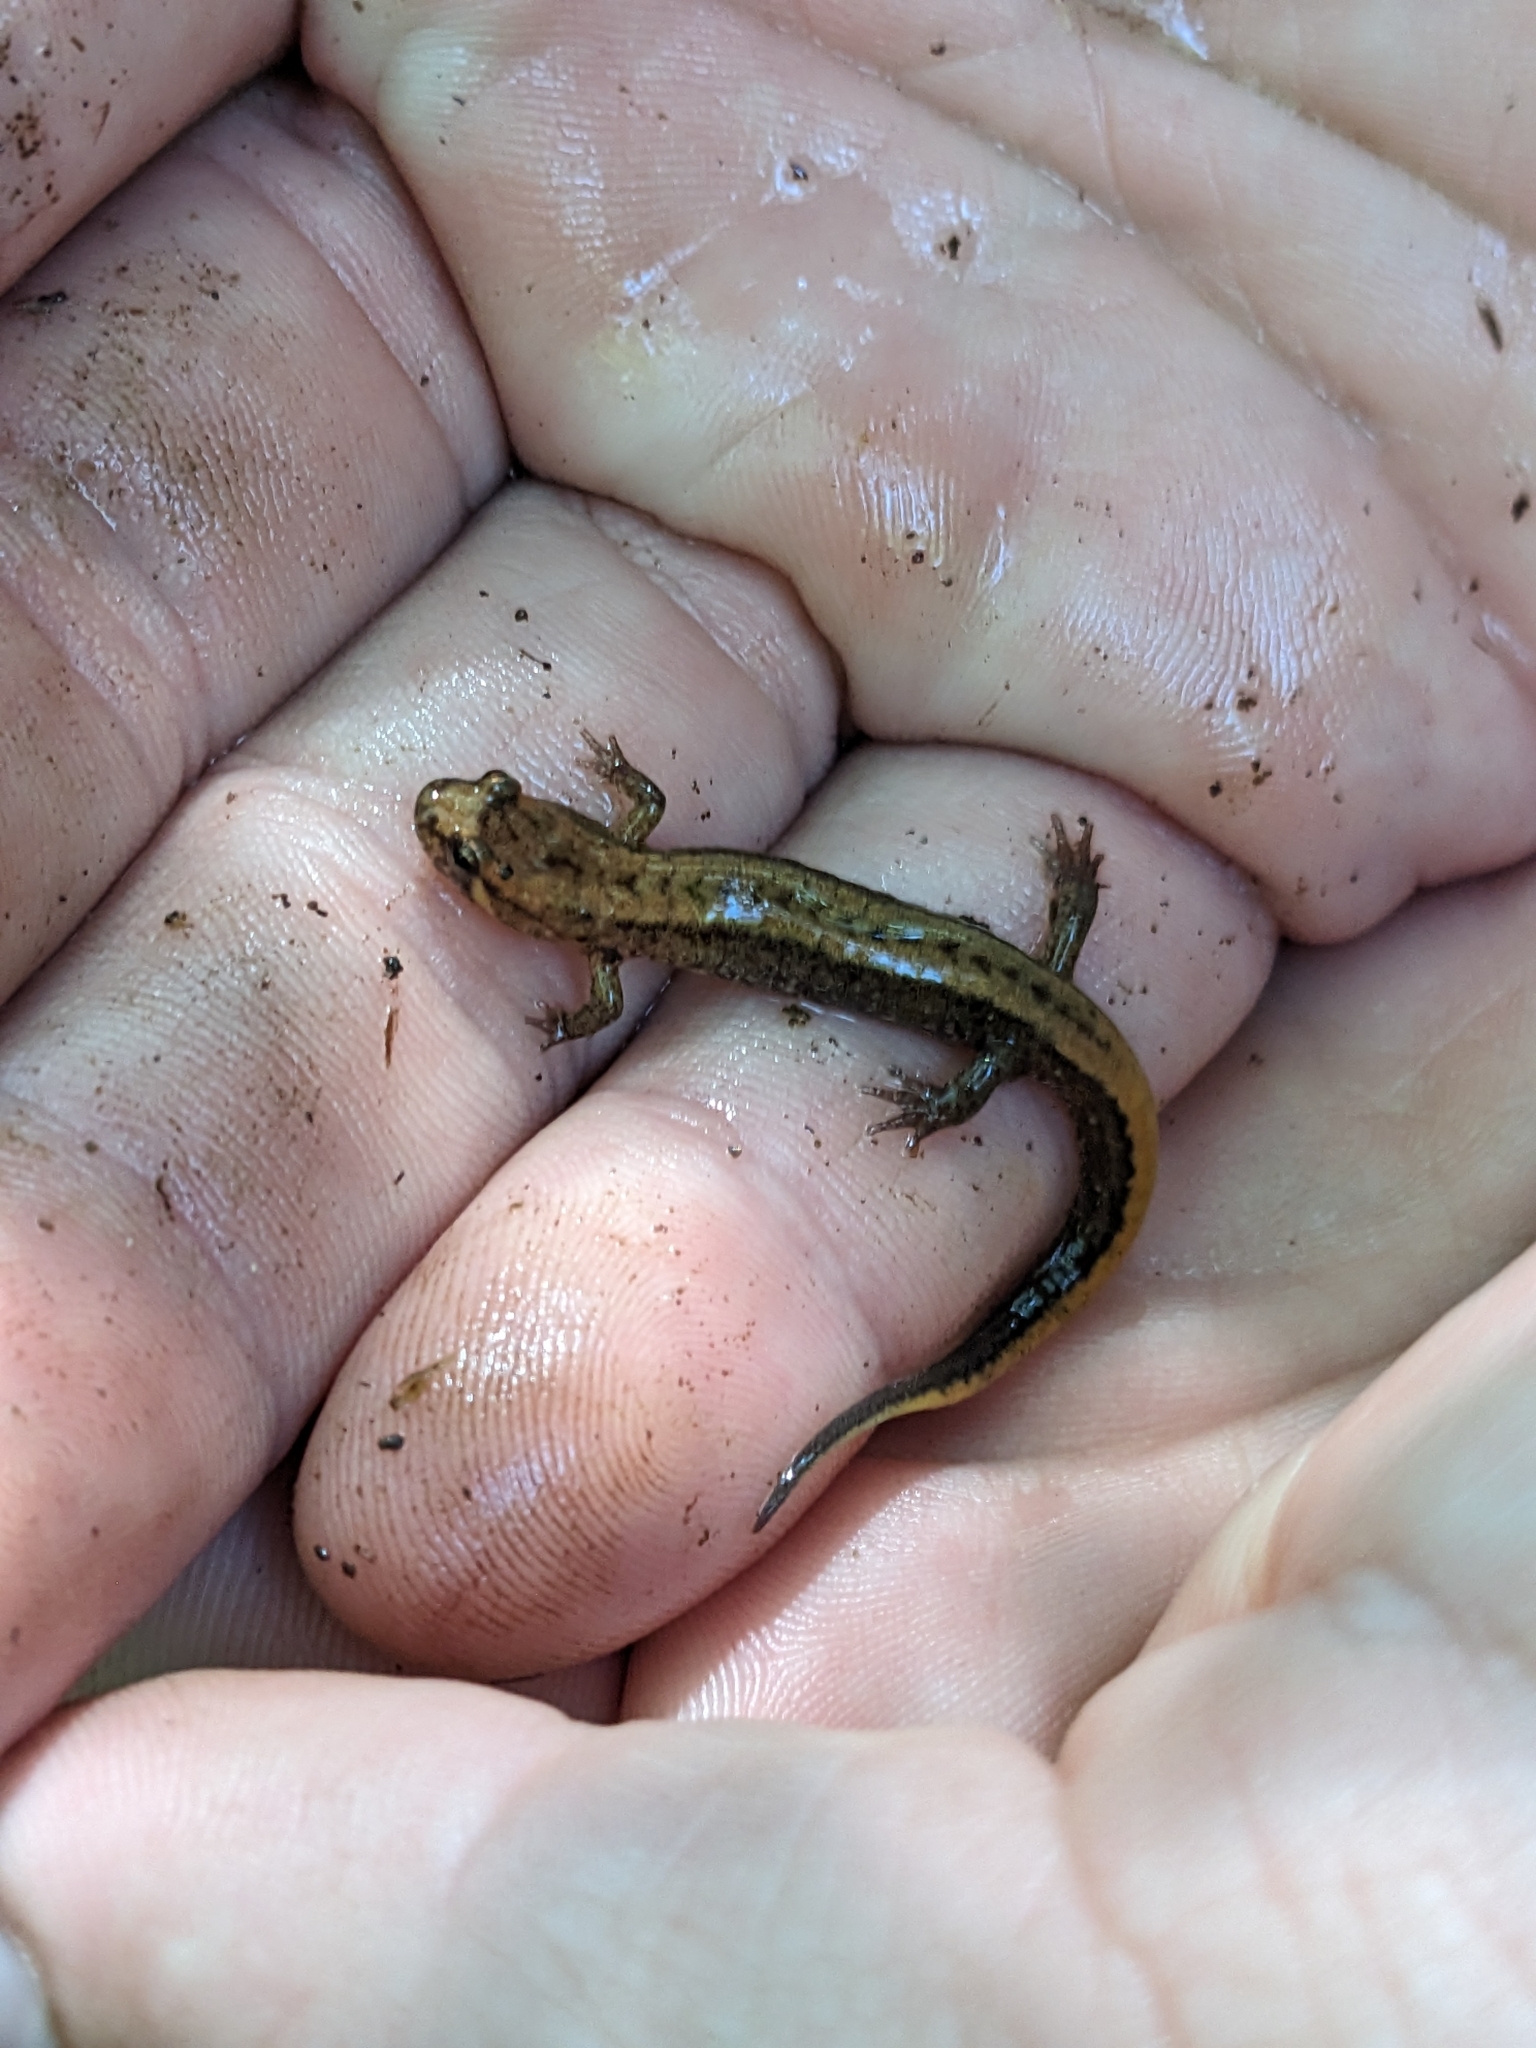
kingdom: Animalia
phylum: Chordata
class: Amphibia
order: Caudata
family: Plethodontidae
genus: Desmognathus
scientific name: Desmognathus ochrophaeus
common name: Allegheny mountain dusky salamander
